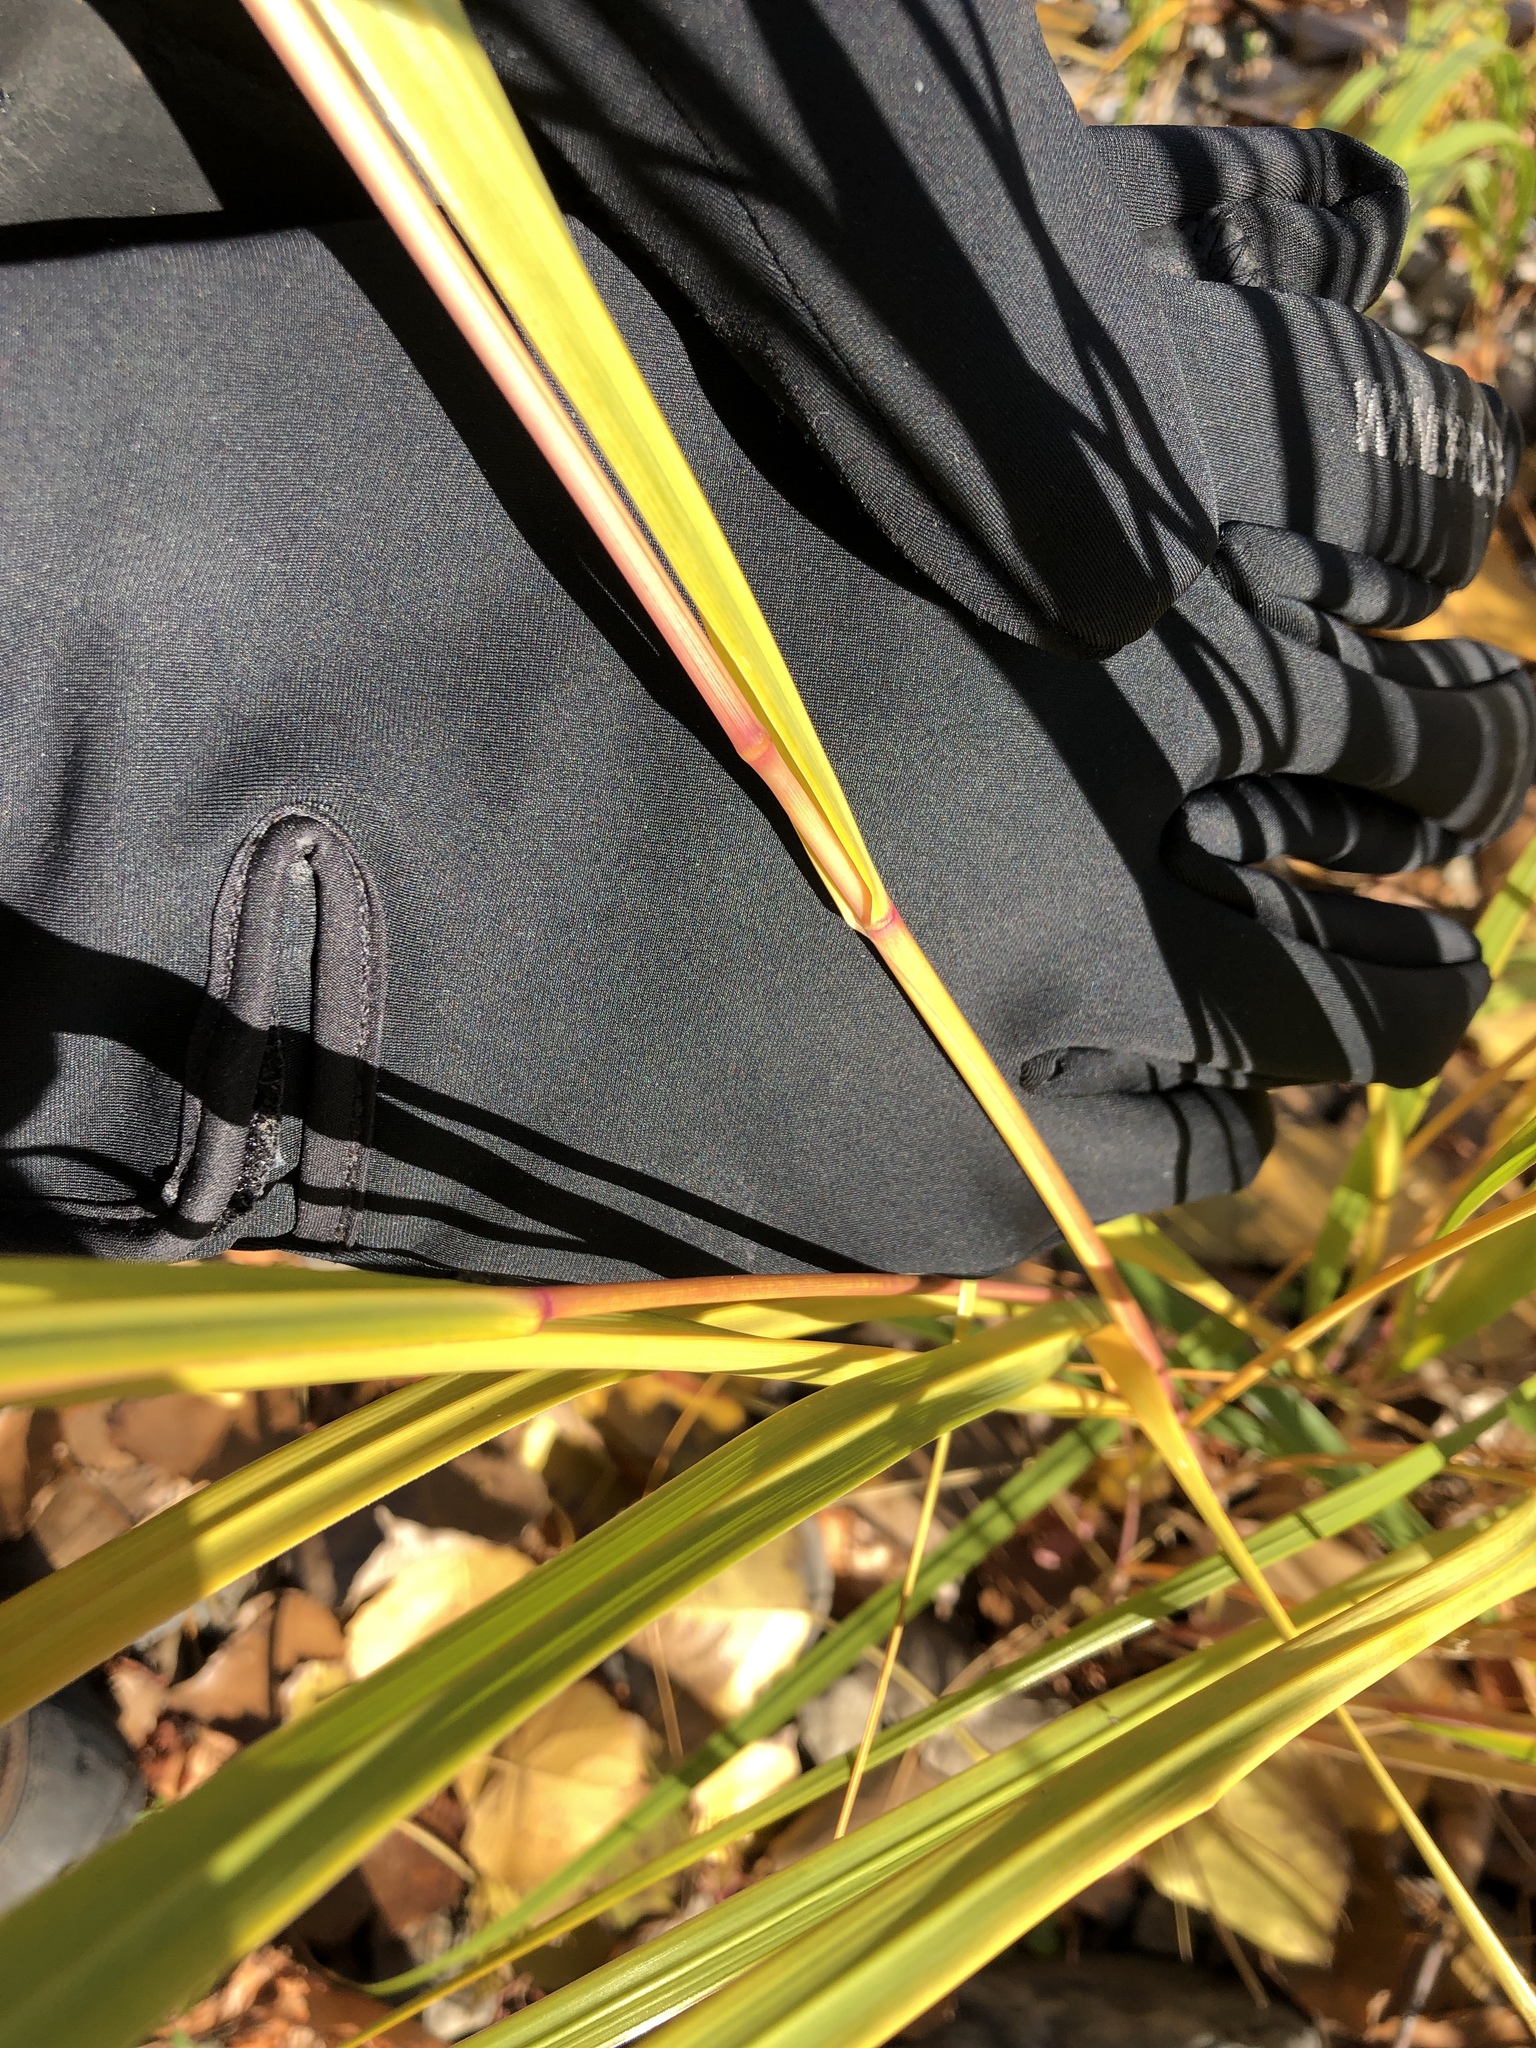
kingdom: Plantae
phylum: Tracheophyta
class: Liliopsida
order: Poales
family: Poaceae
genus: Sporobolus
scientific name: Sporobolus michauxianus
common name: Freshwater cordgrass
